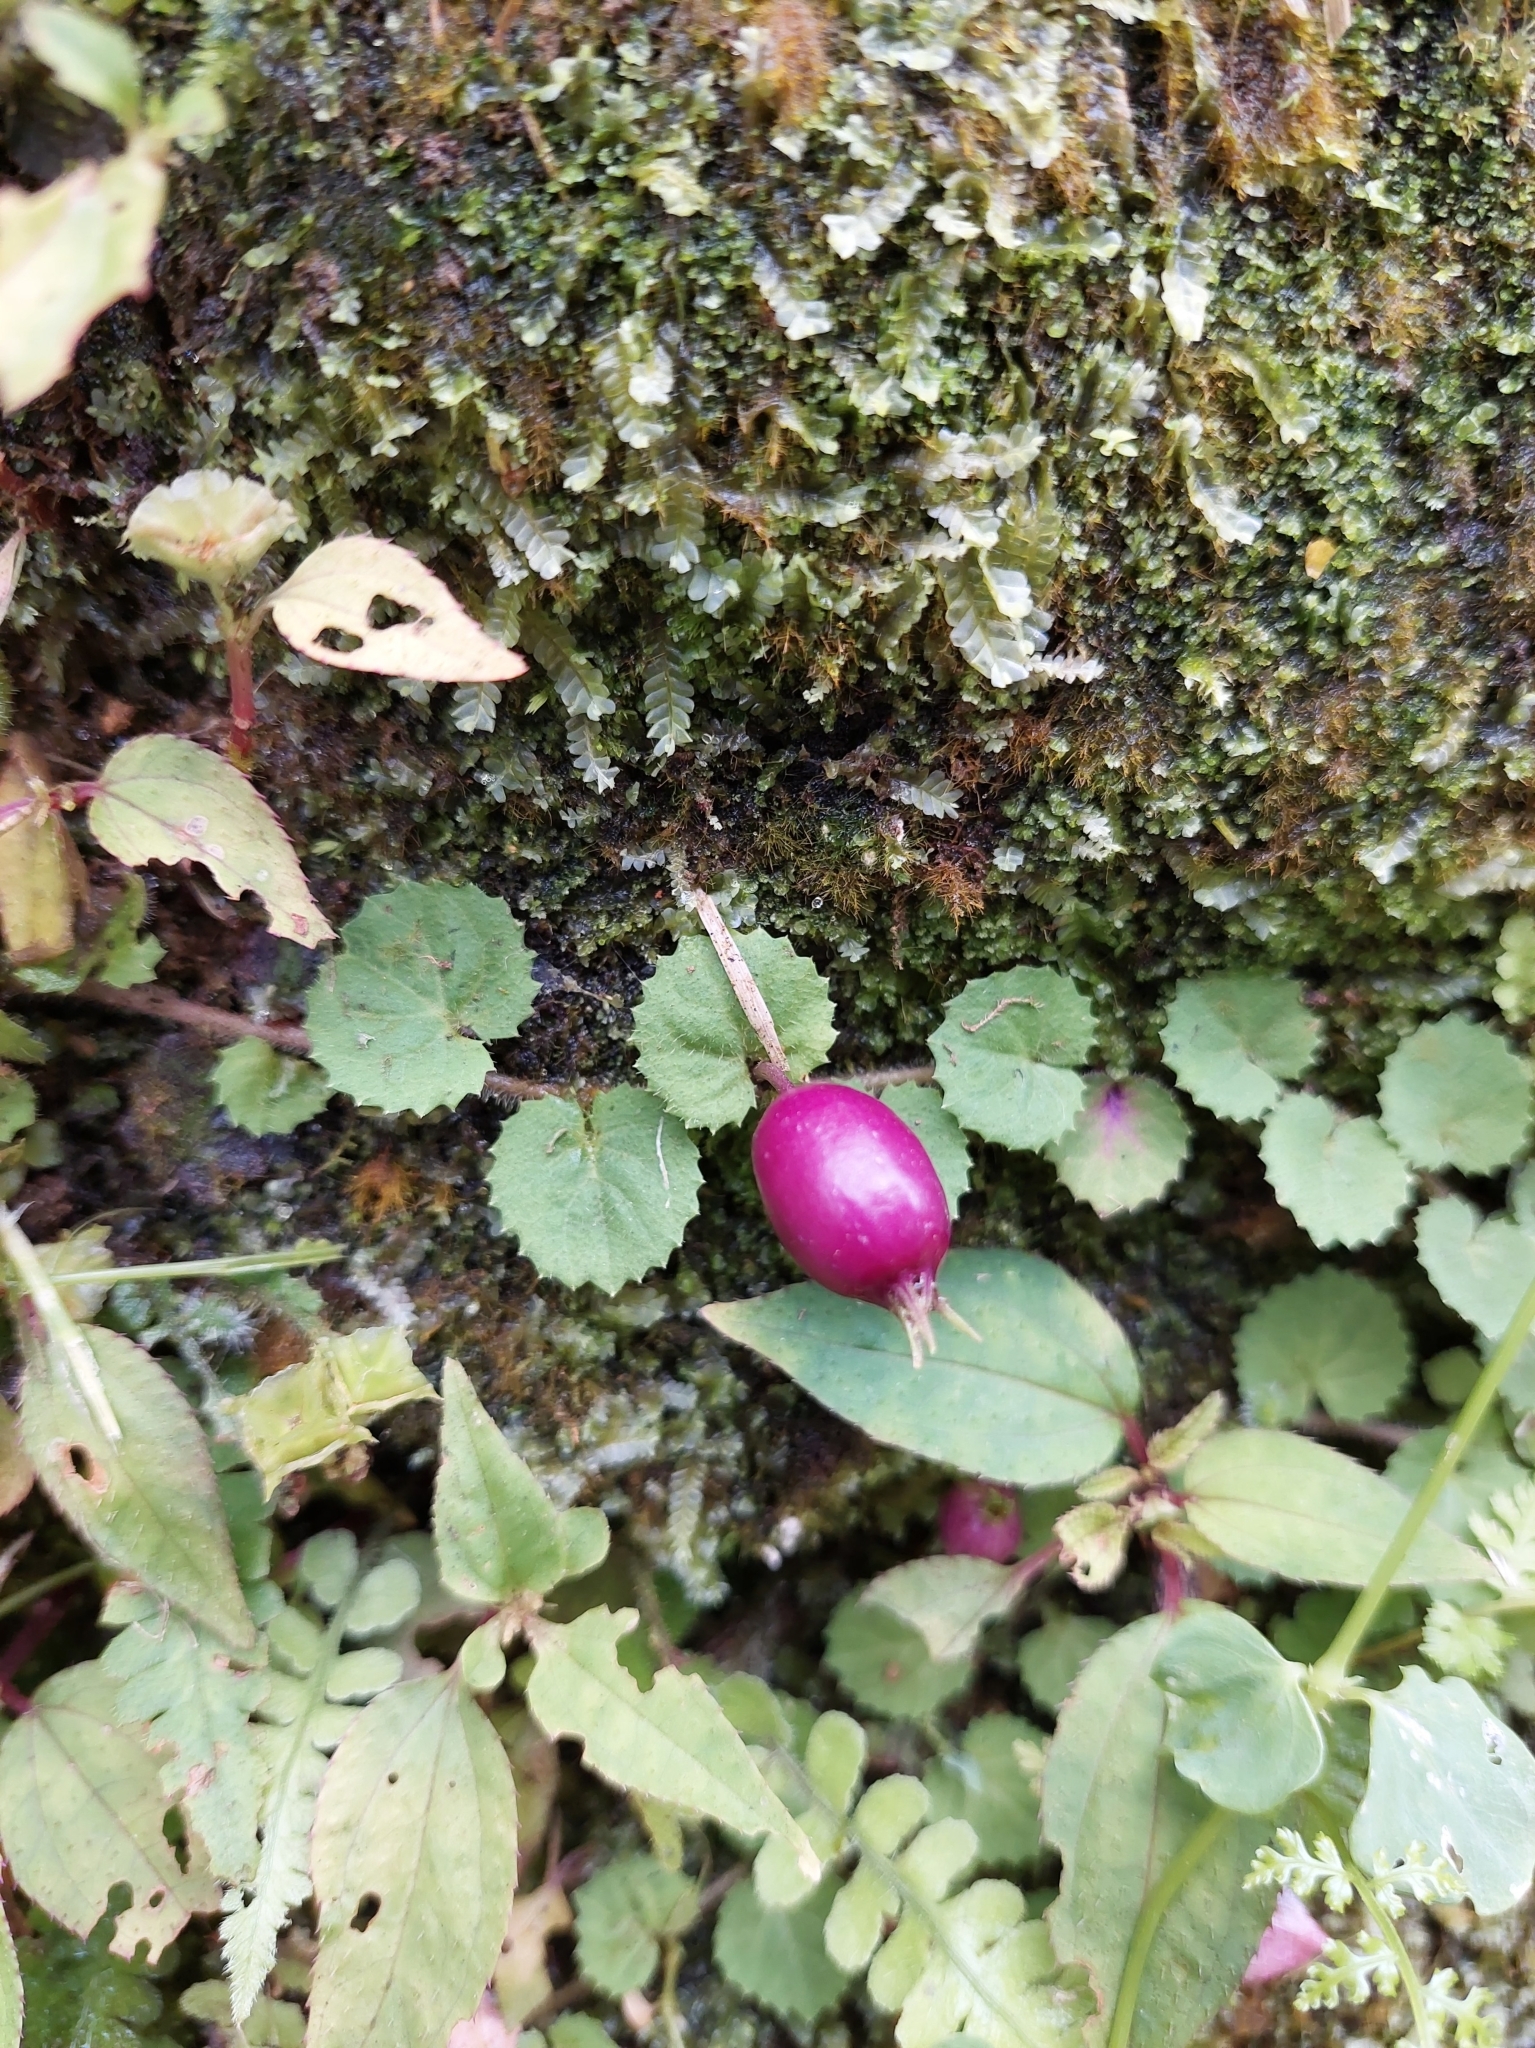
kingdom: Plantae
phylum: Tracheophyta
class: Magnoliopsida
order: Asterales
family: Campanulaceae
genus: Lobelia
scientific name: Lobelia nummularia
